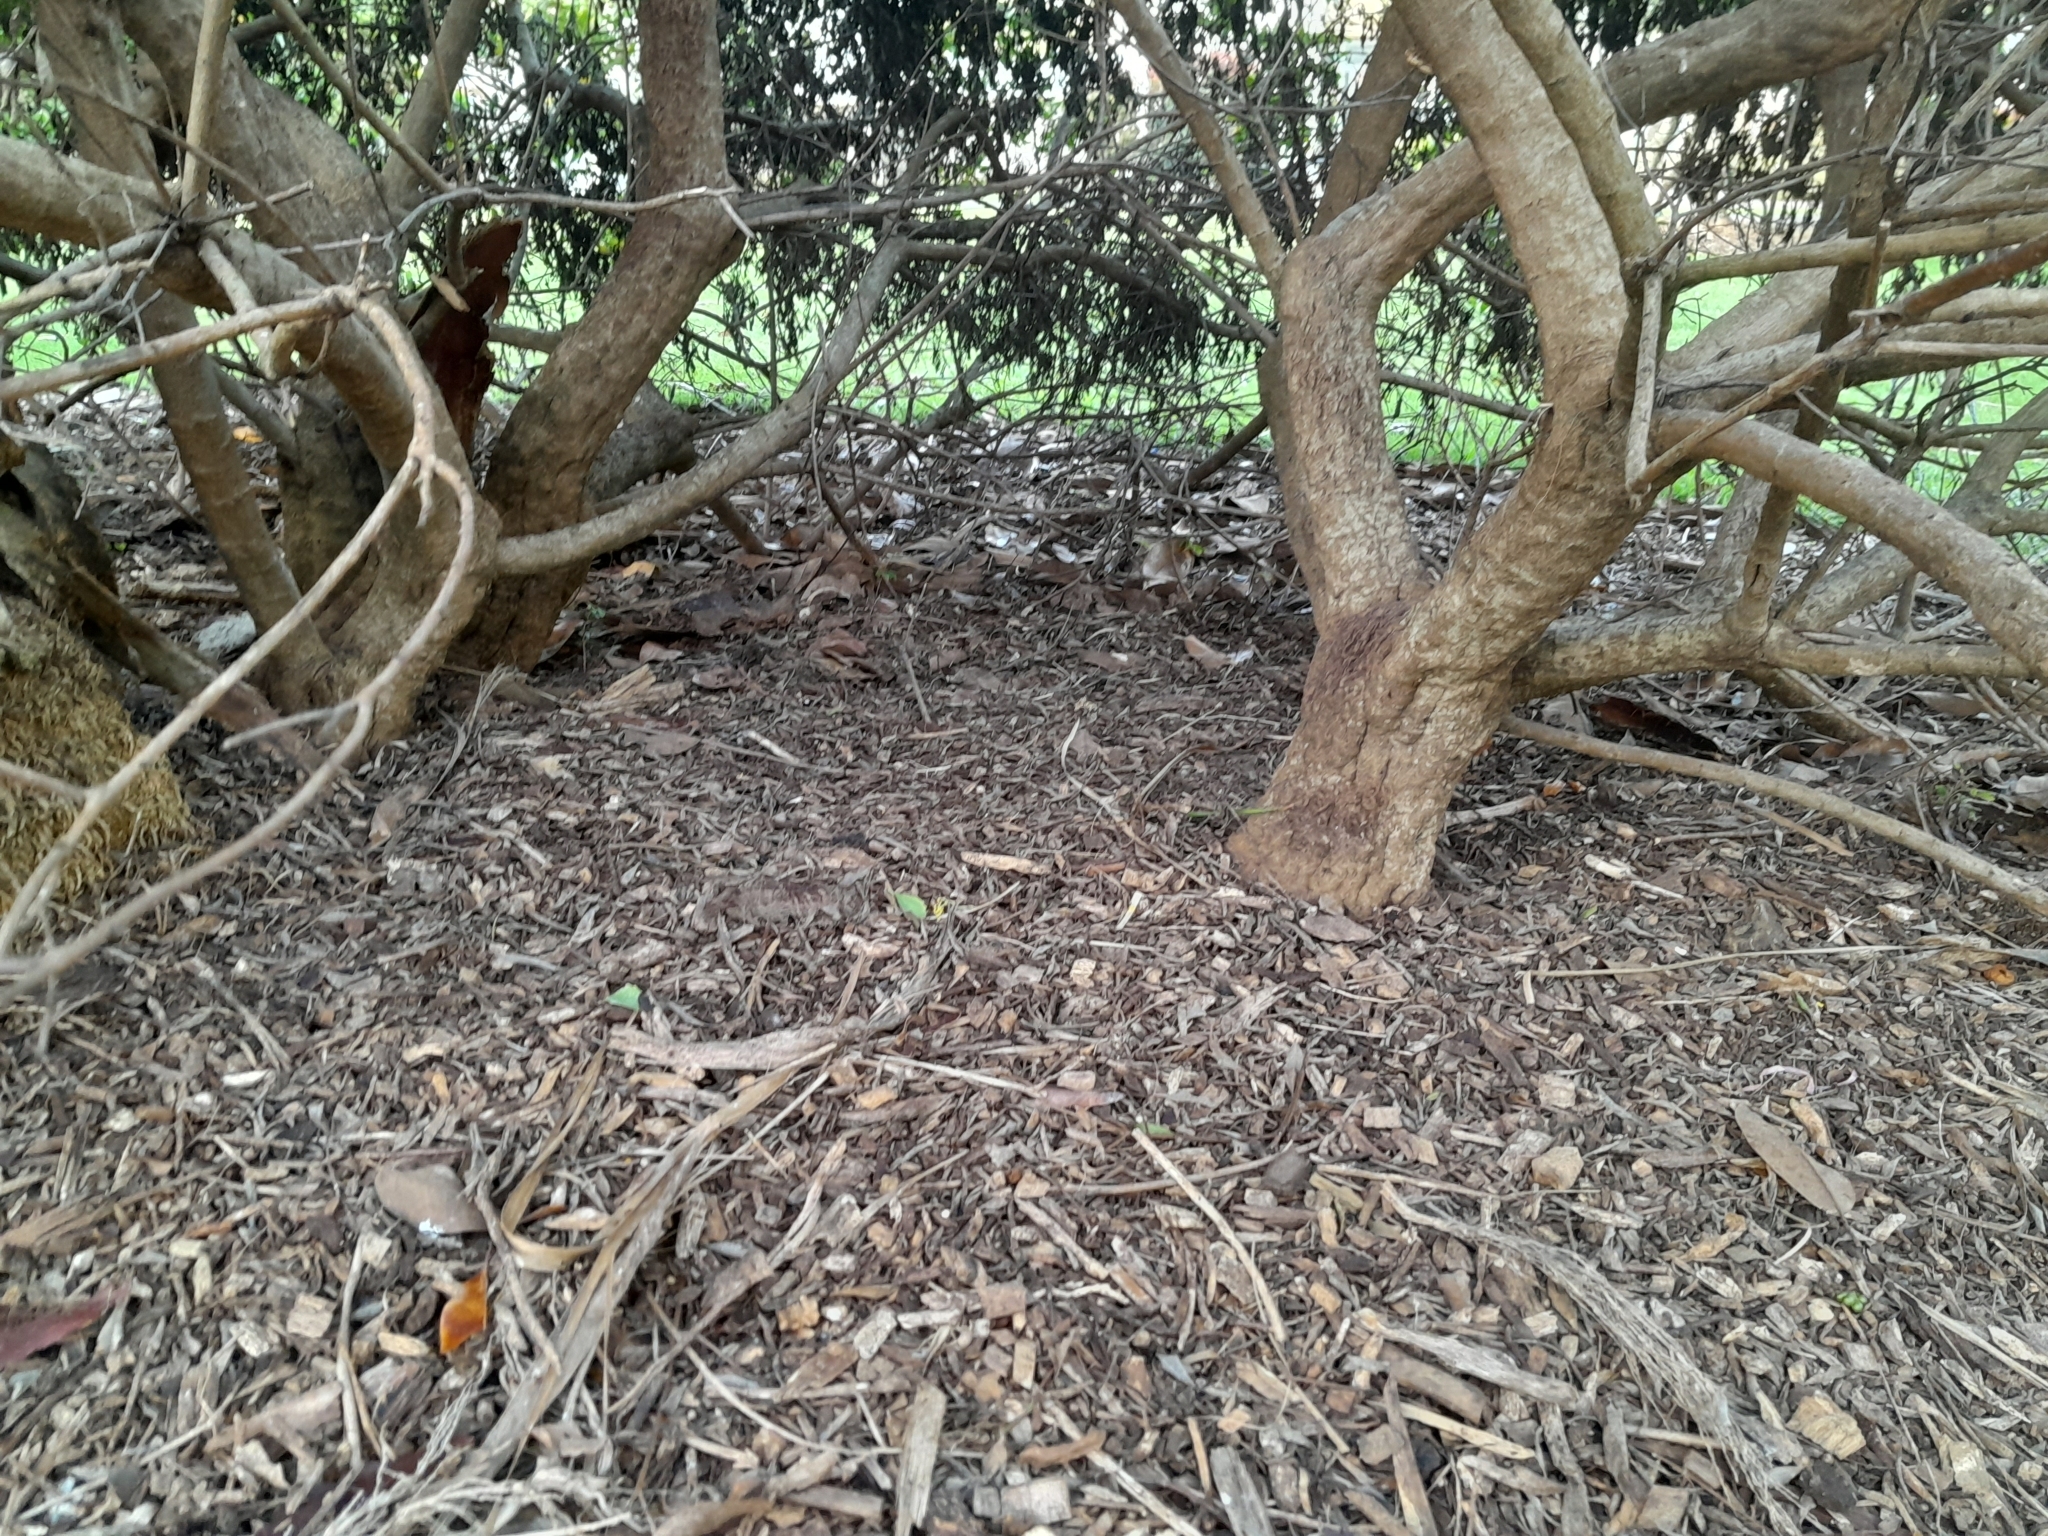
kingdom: Plantae
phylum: Tracheophyta
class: Magnoliopsida
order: Asterales
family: Asteraceae
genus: Osteospermum
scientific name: Osteospermum moniliferum
